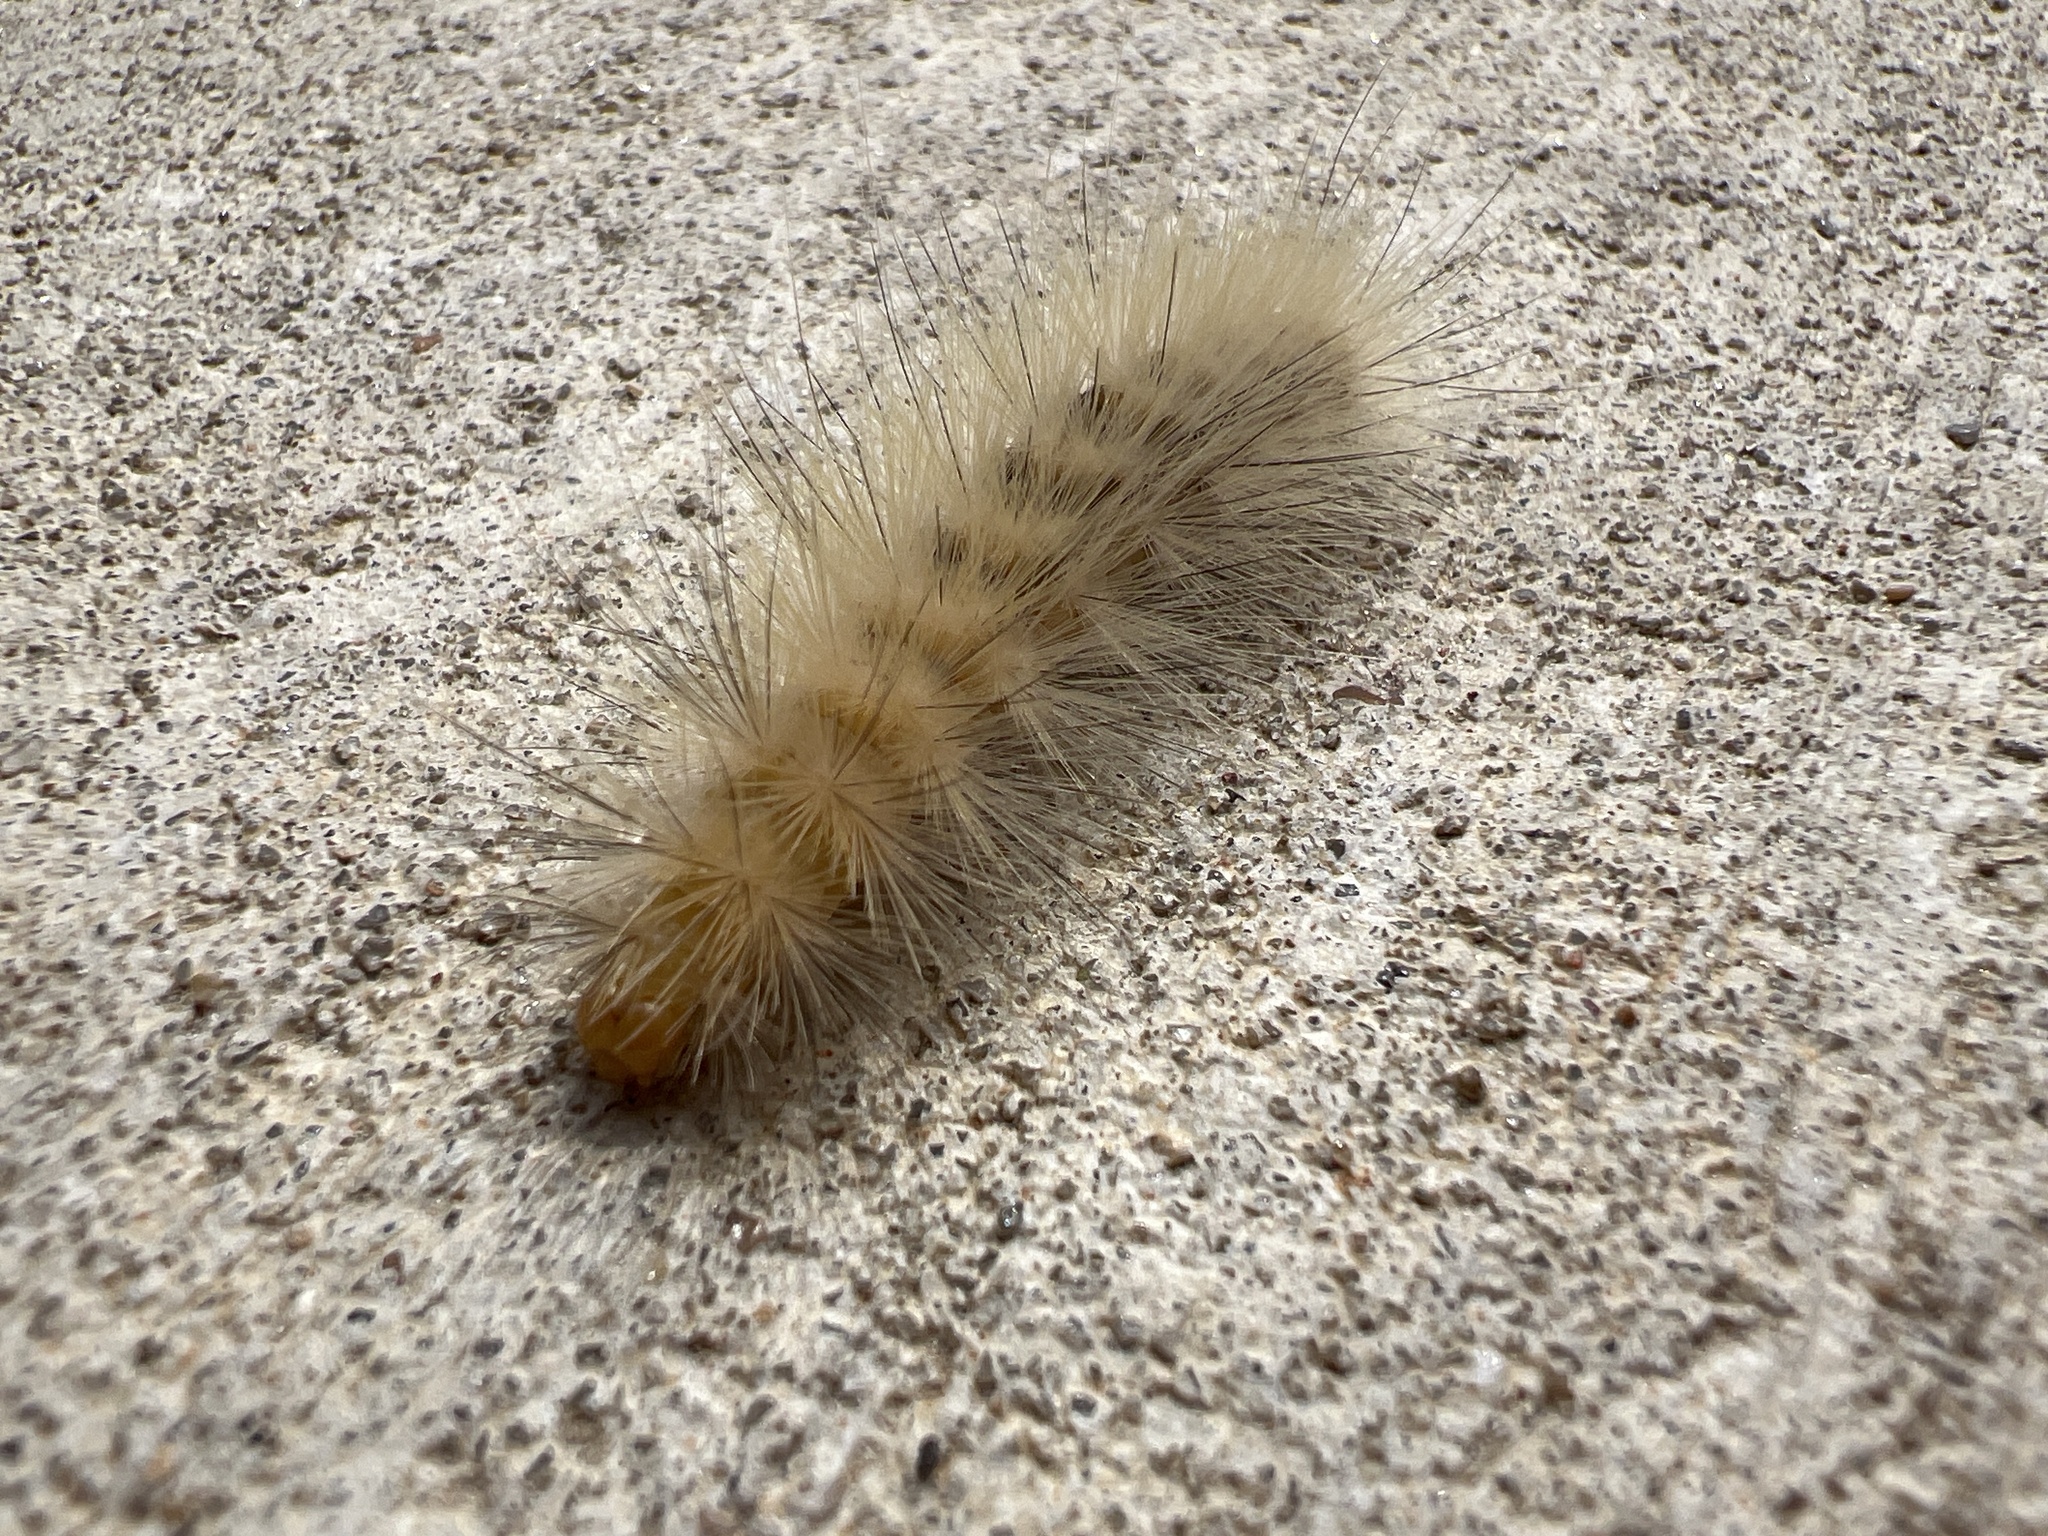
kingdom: Animalia
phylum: Arthropoda
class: Insecta
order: Lepidoptera
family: Erebidae
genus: Spilosoma
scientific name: Spilosoma virginica
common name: Virginia tiger moth
